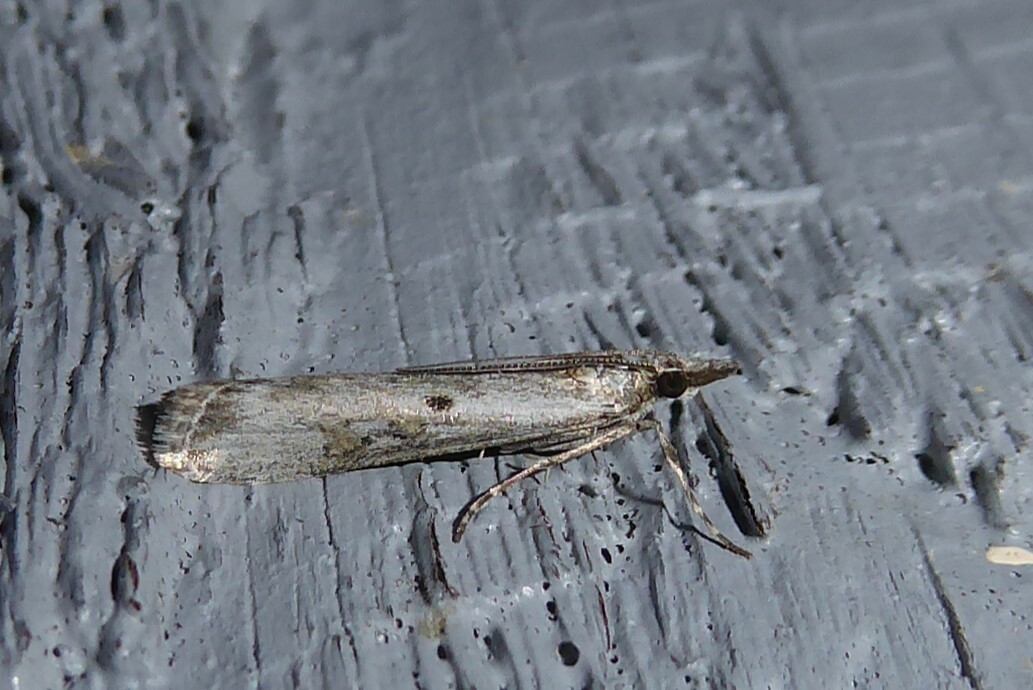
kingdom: Animalia
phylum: Arthropoda
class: Insecta
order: Lepidoptera
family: Crambidae
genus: Eudonia
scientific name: Eudonia leptalea
